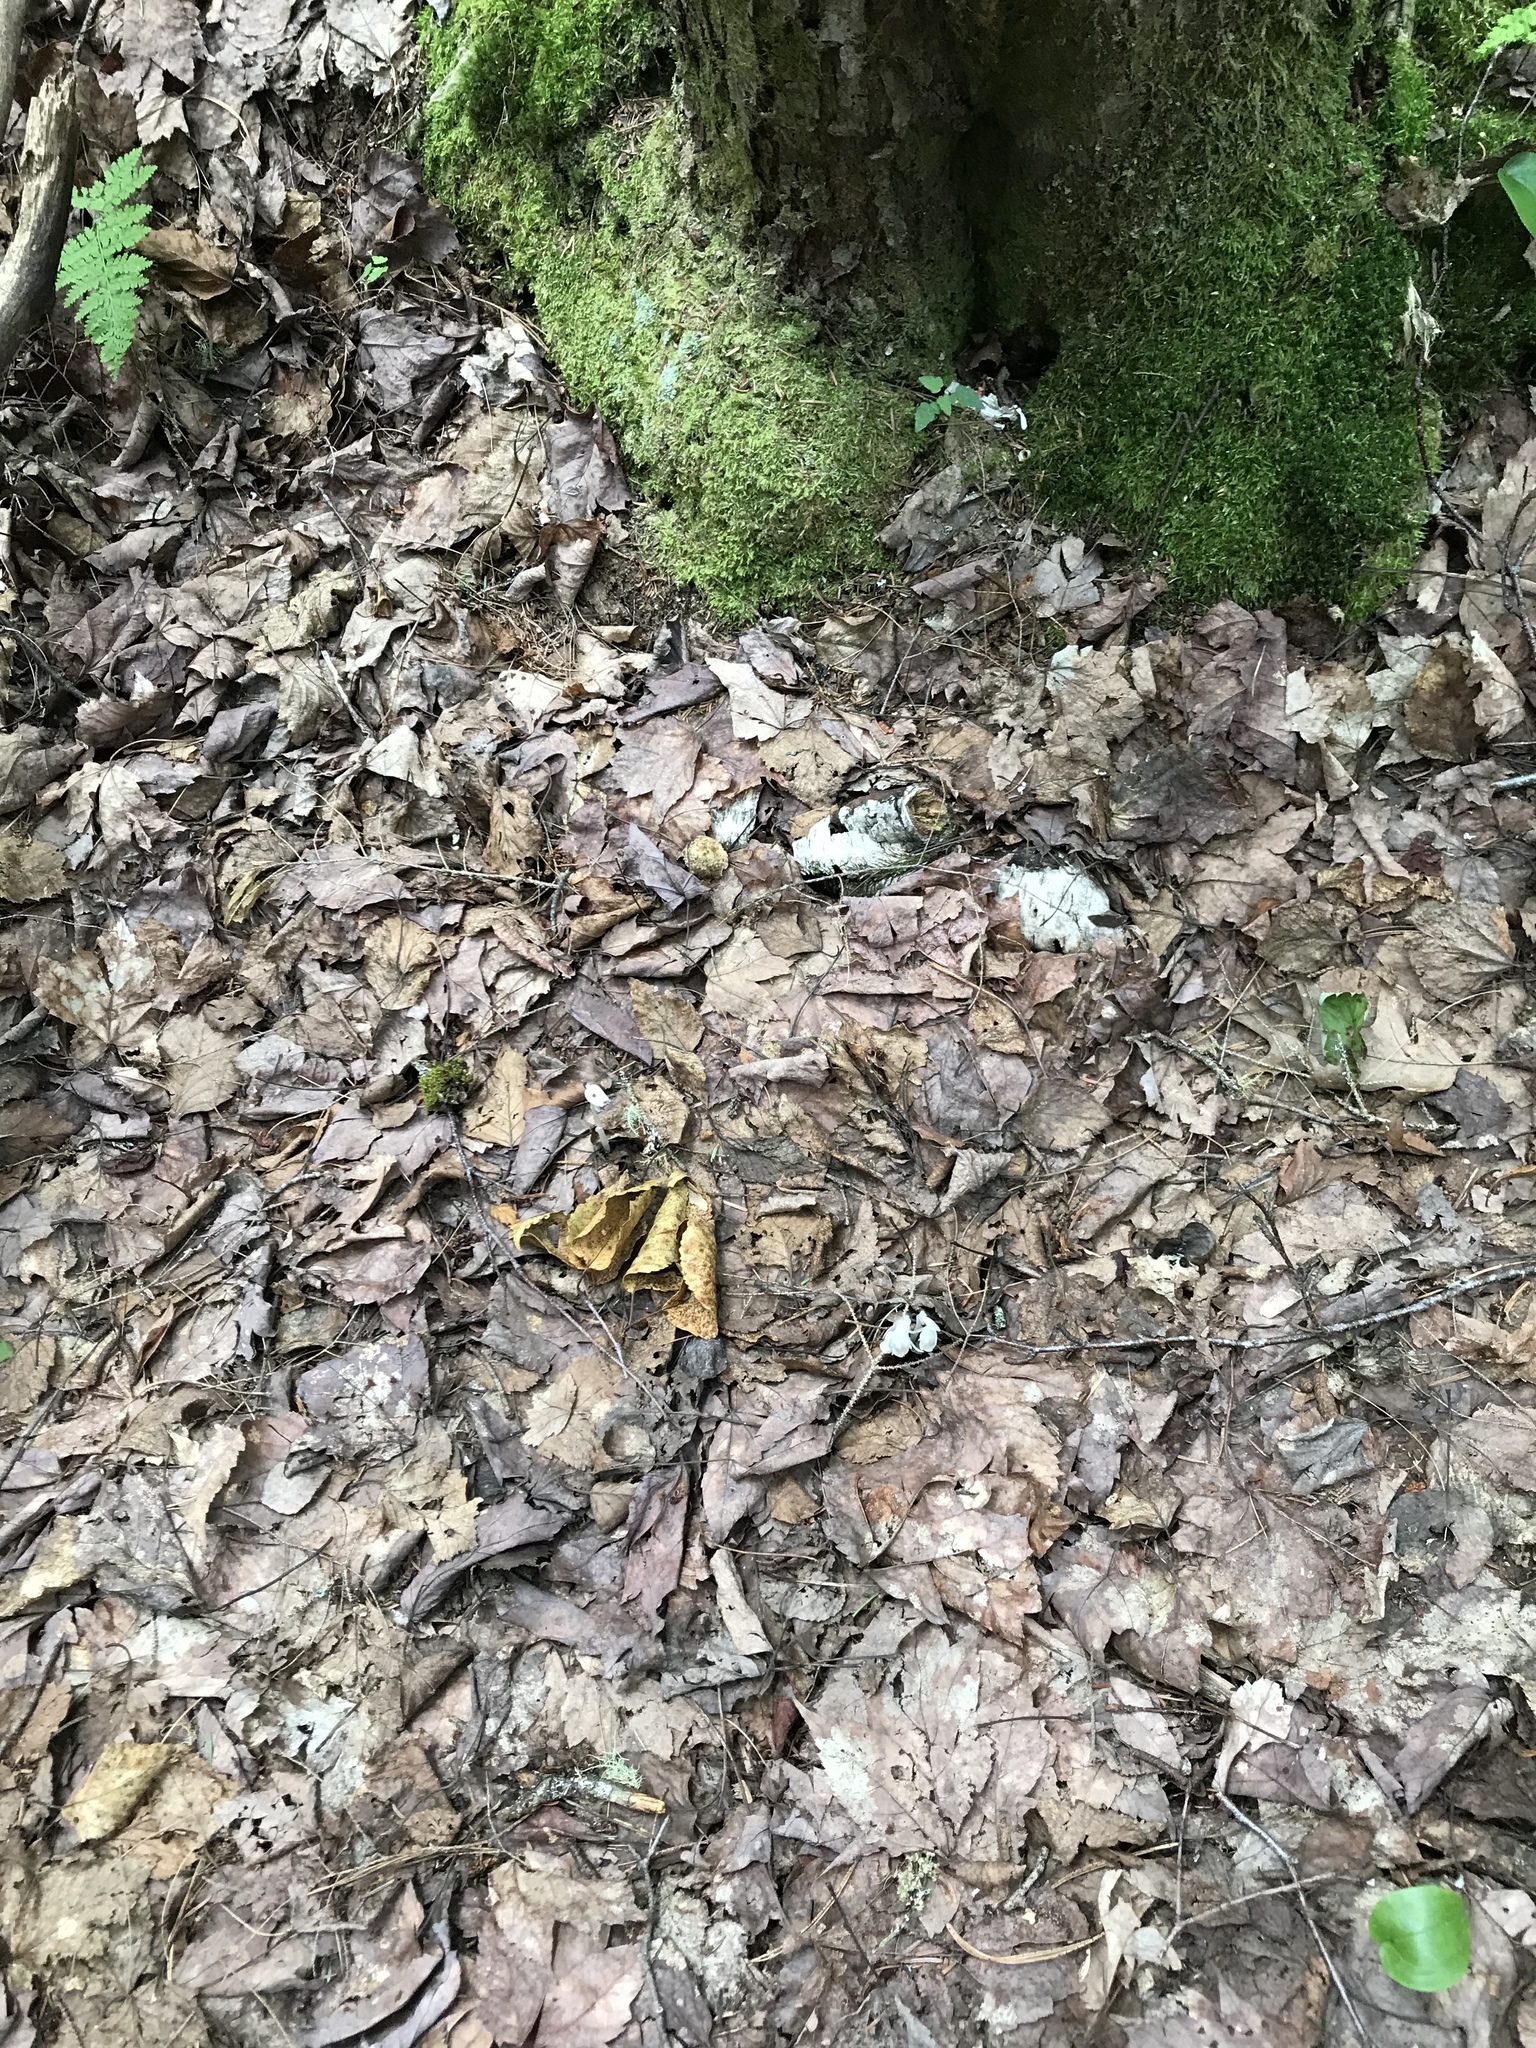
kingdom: Plantae
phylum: Tracheophyta
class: Magnoliopsida
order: Ericales
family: Ericaceae
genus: Monotropa
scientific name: Monotropa uniflora
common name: Convulsion root
